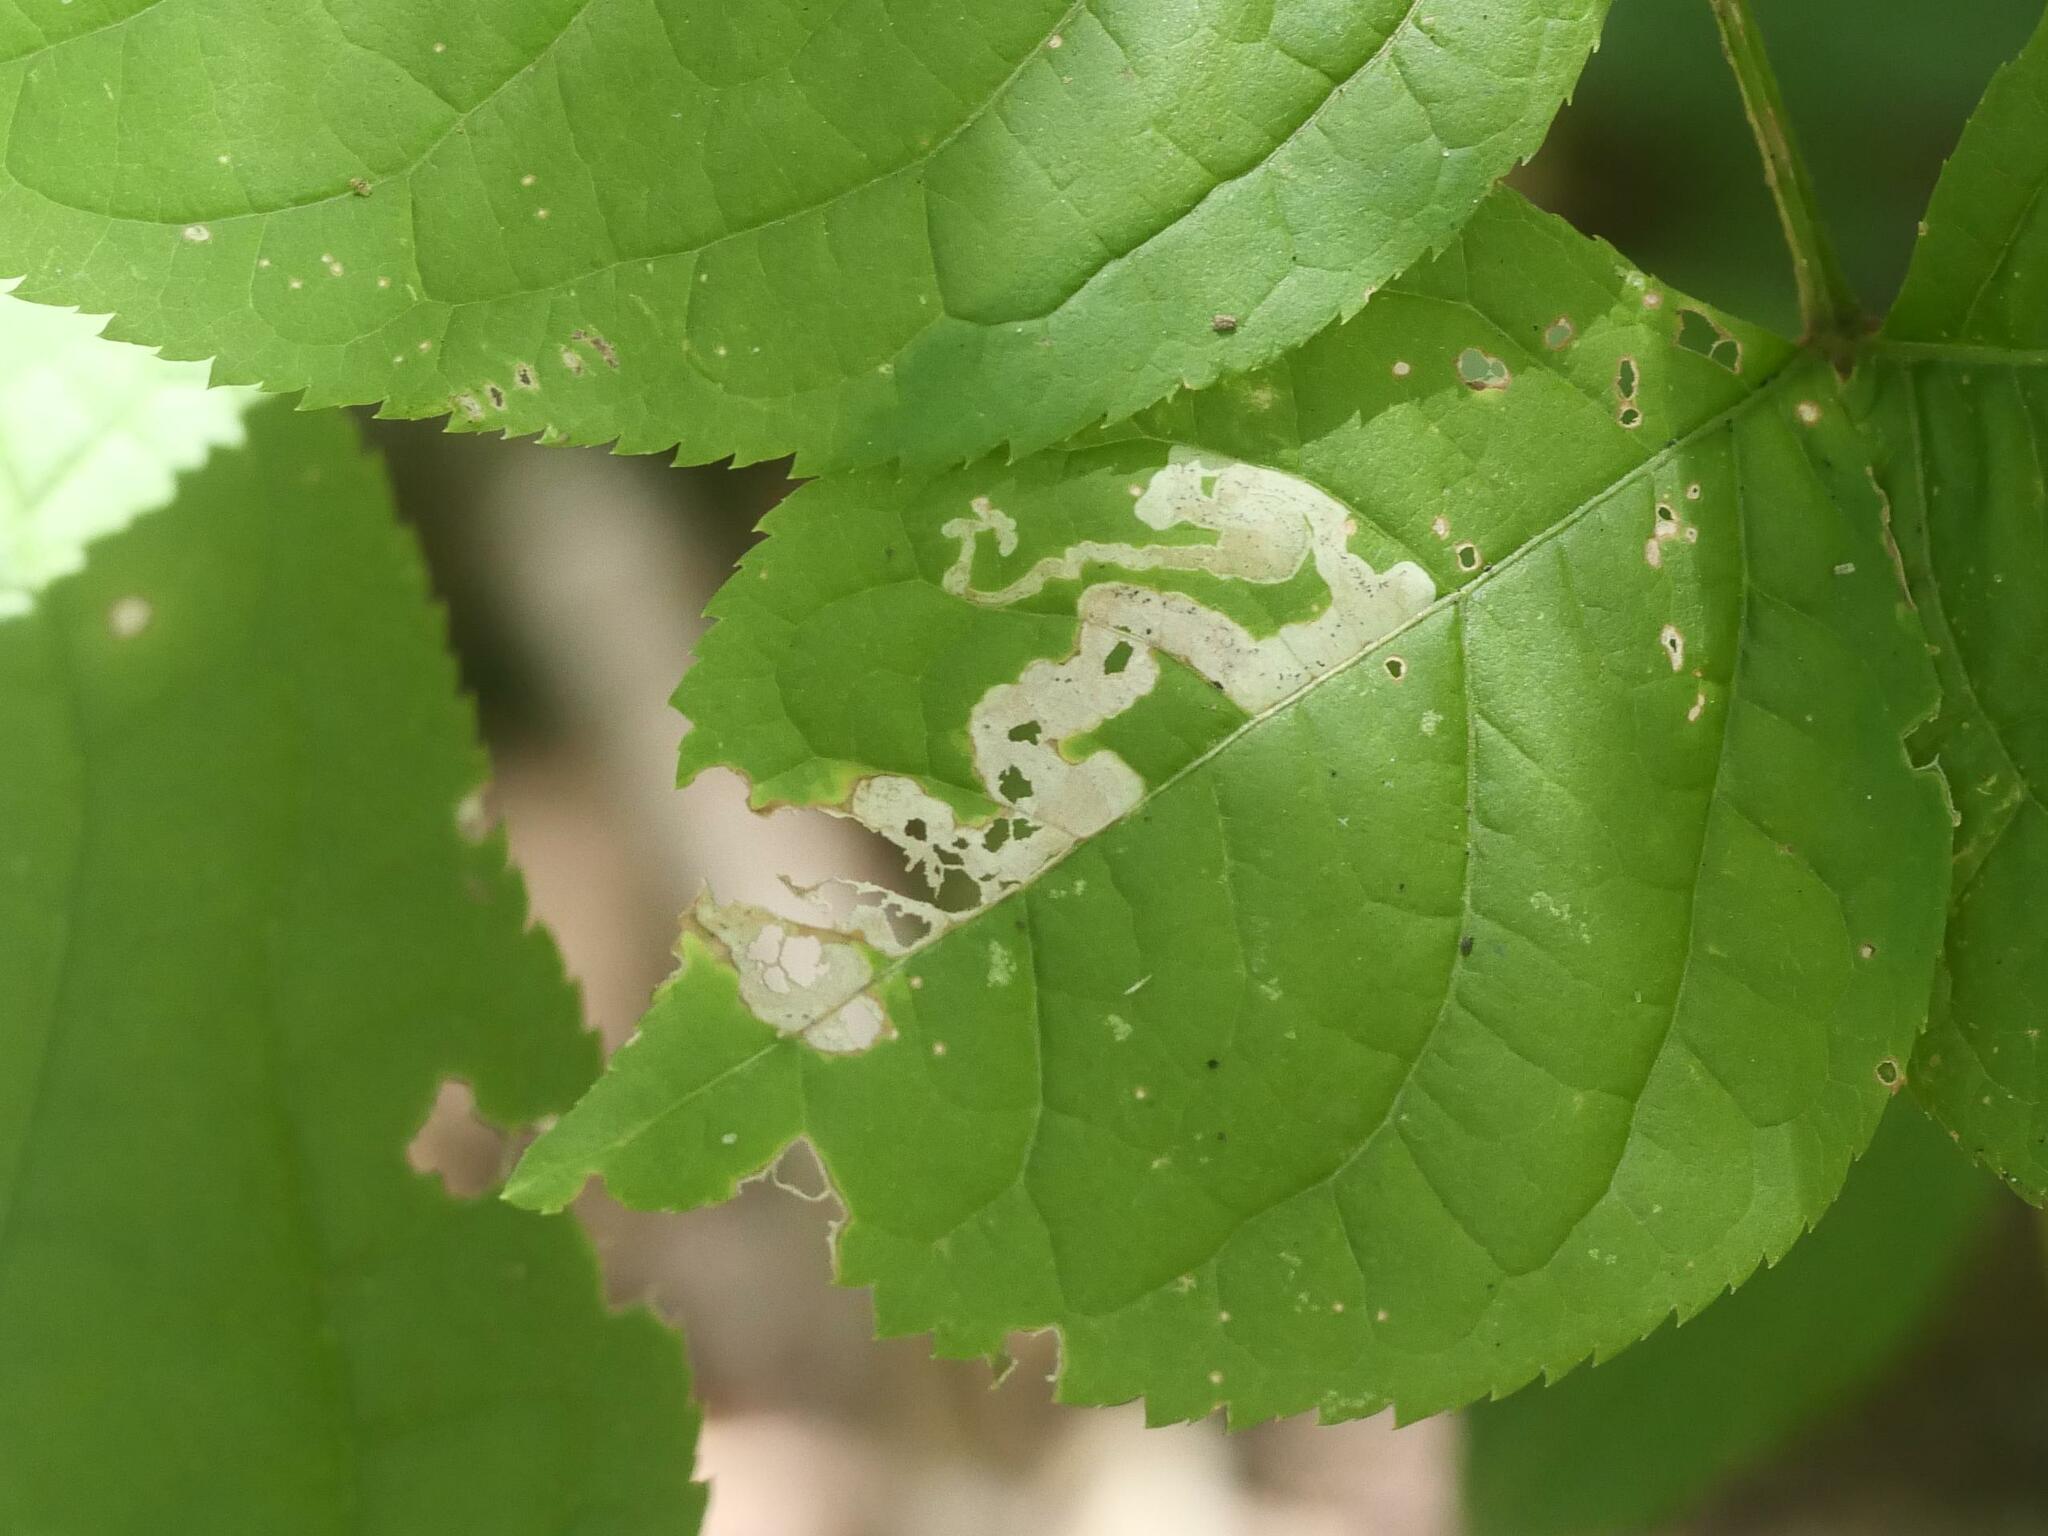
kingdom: Animalia
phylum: Arthropoda
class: Insecta
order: Diptera
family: Agromyzidae
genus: Phytomyza
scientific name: Phytomyza aralivora
